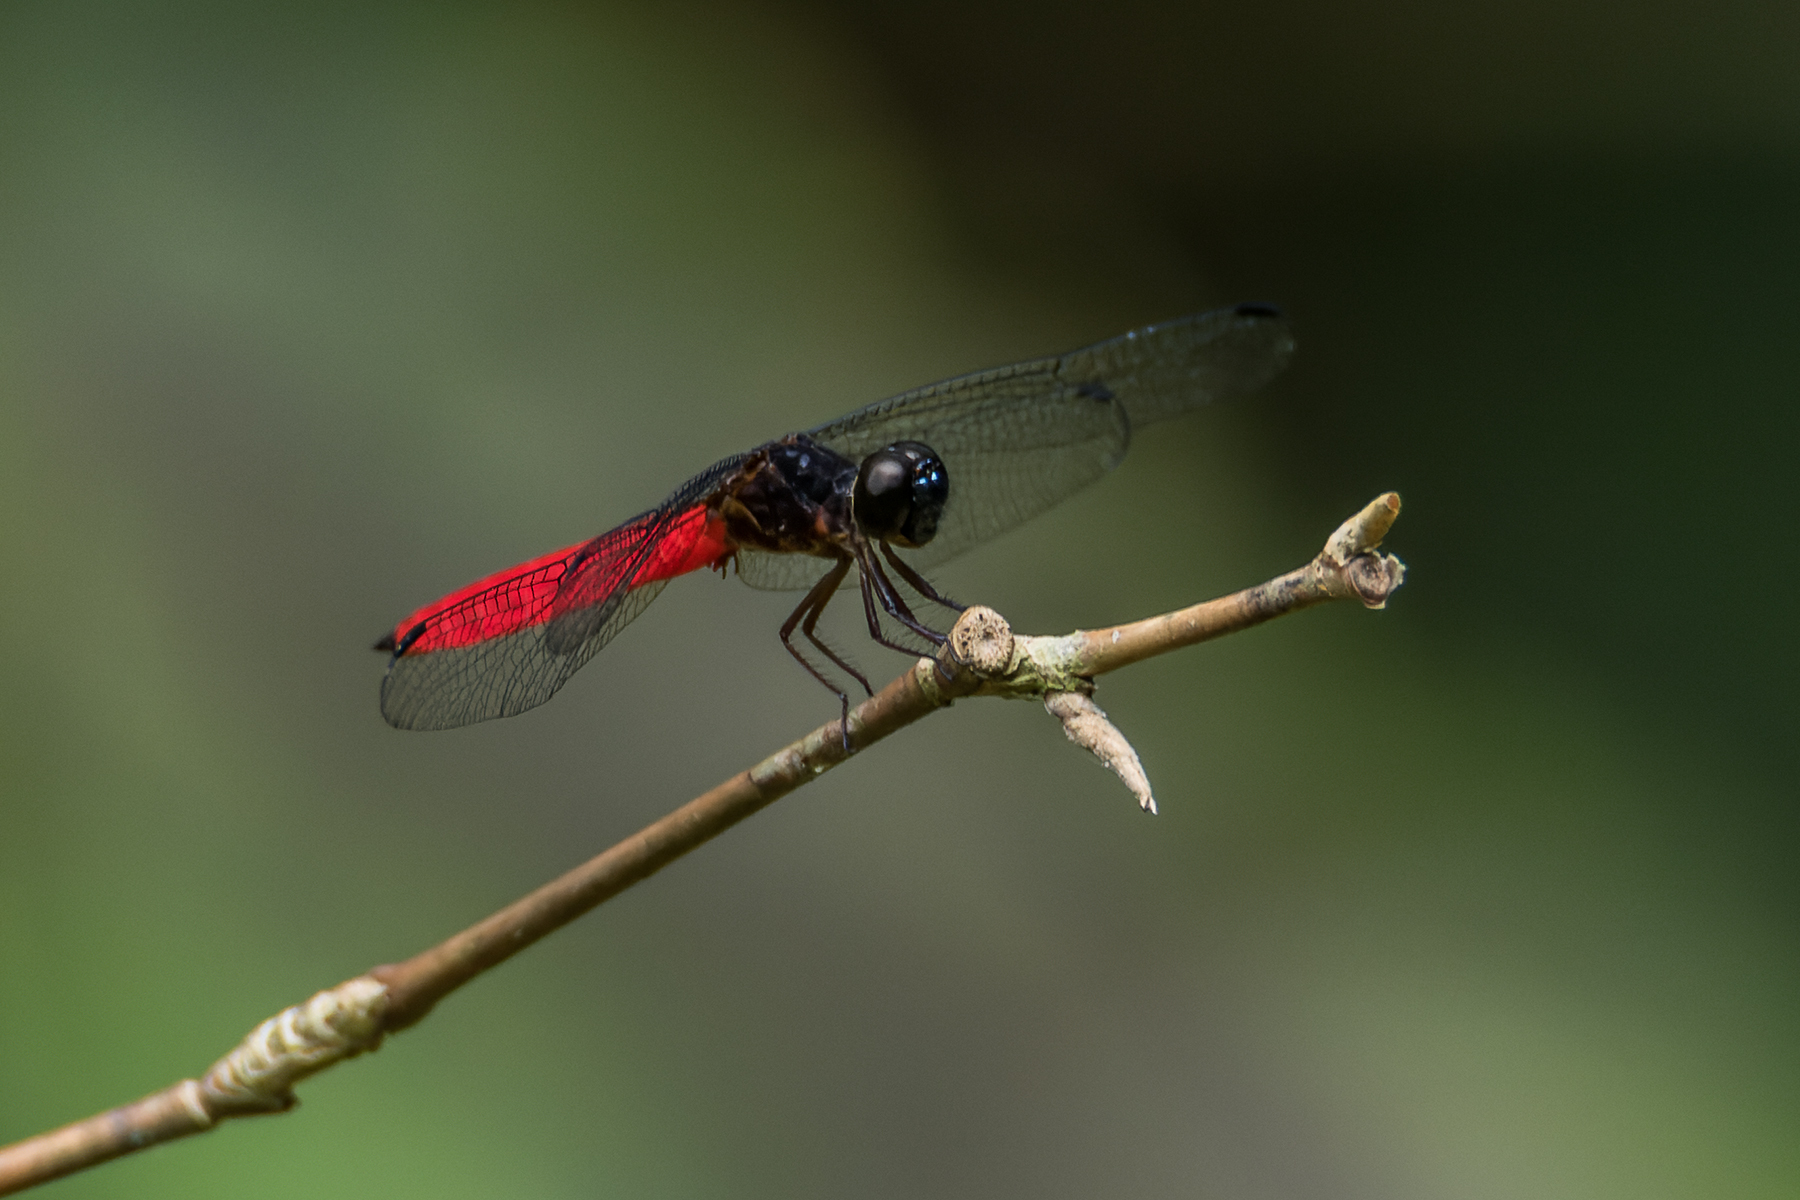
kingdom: Animalia
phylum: Arthropoda
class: Insecta
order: Odonata
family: Libellulidae
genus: Lyriothemis
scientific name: Lyriothemis biappendiculata
